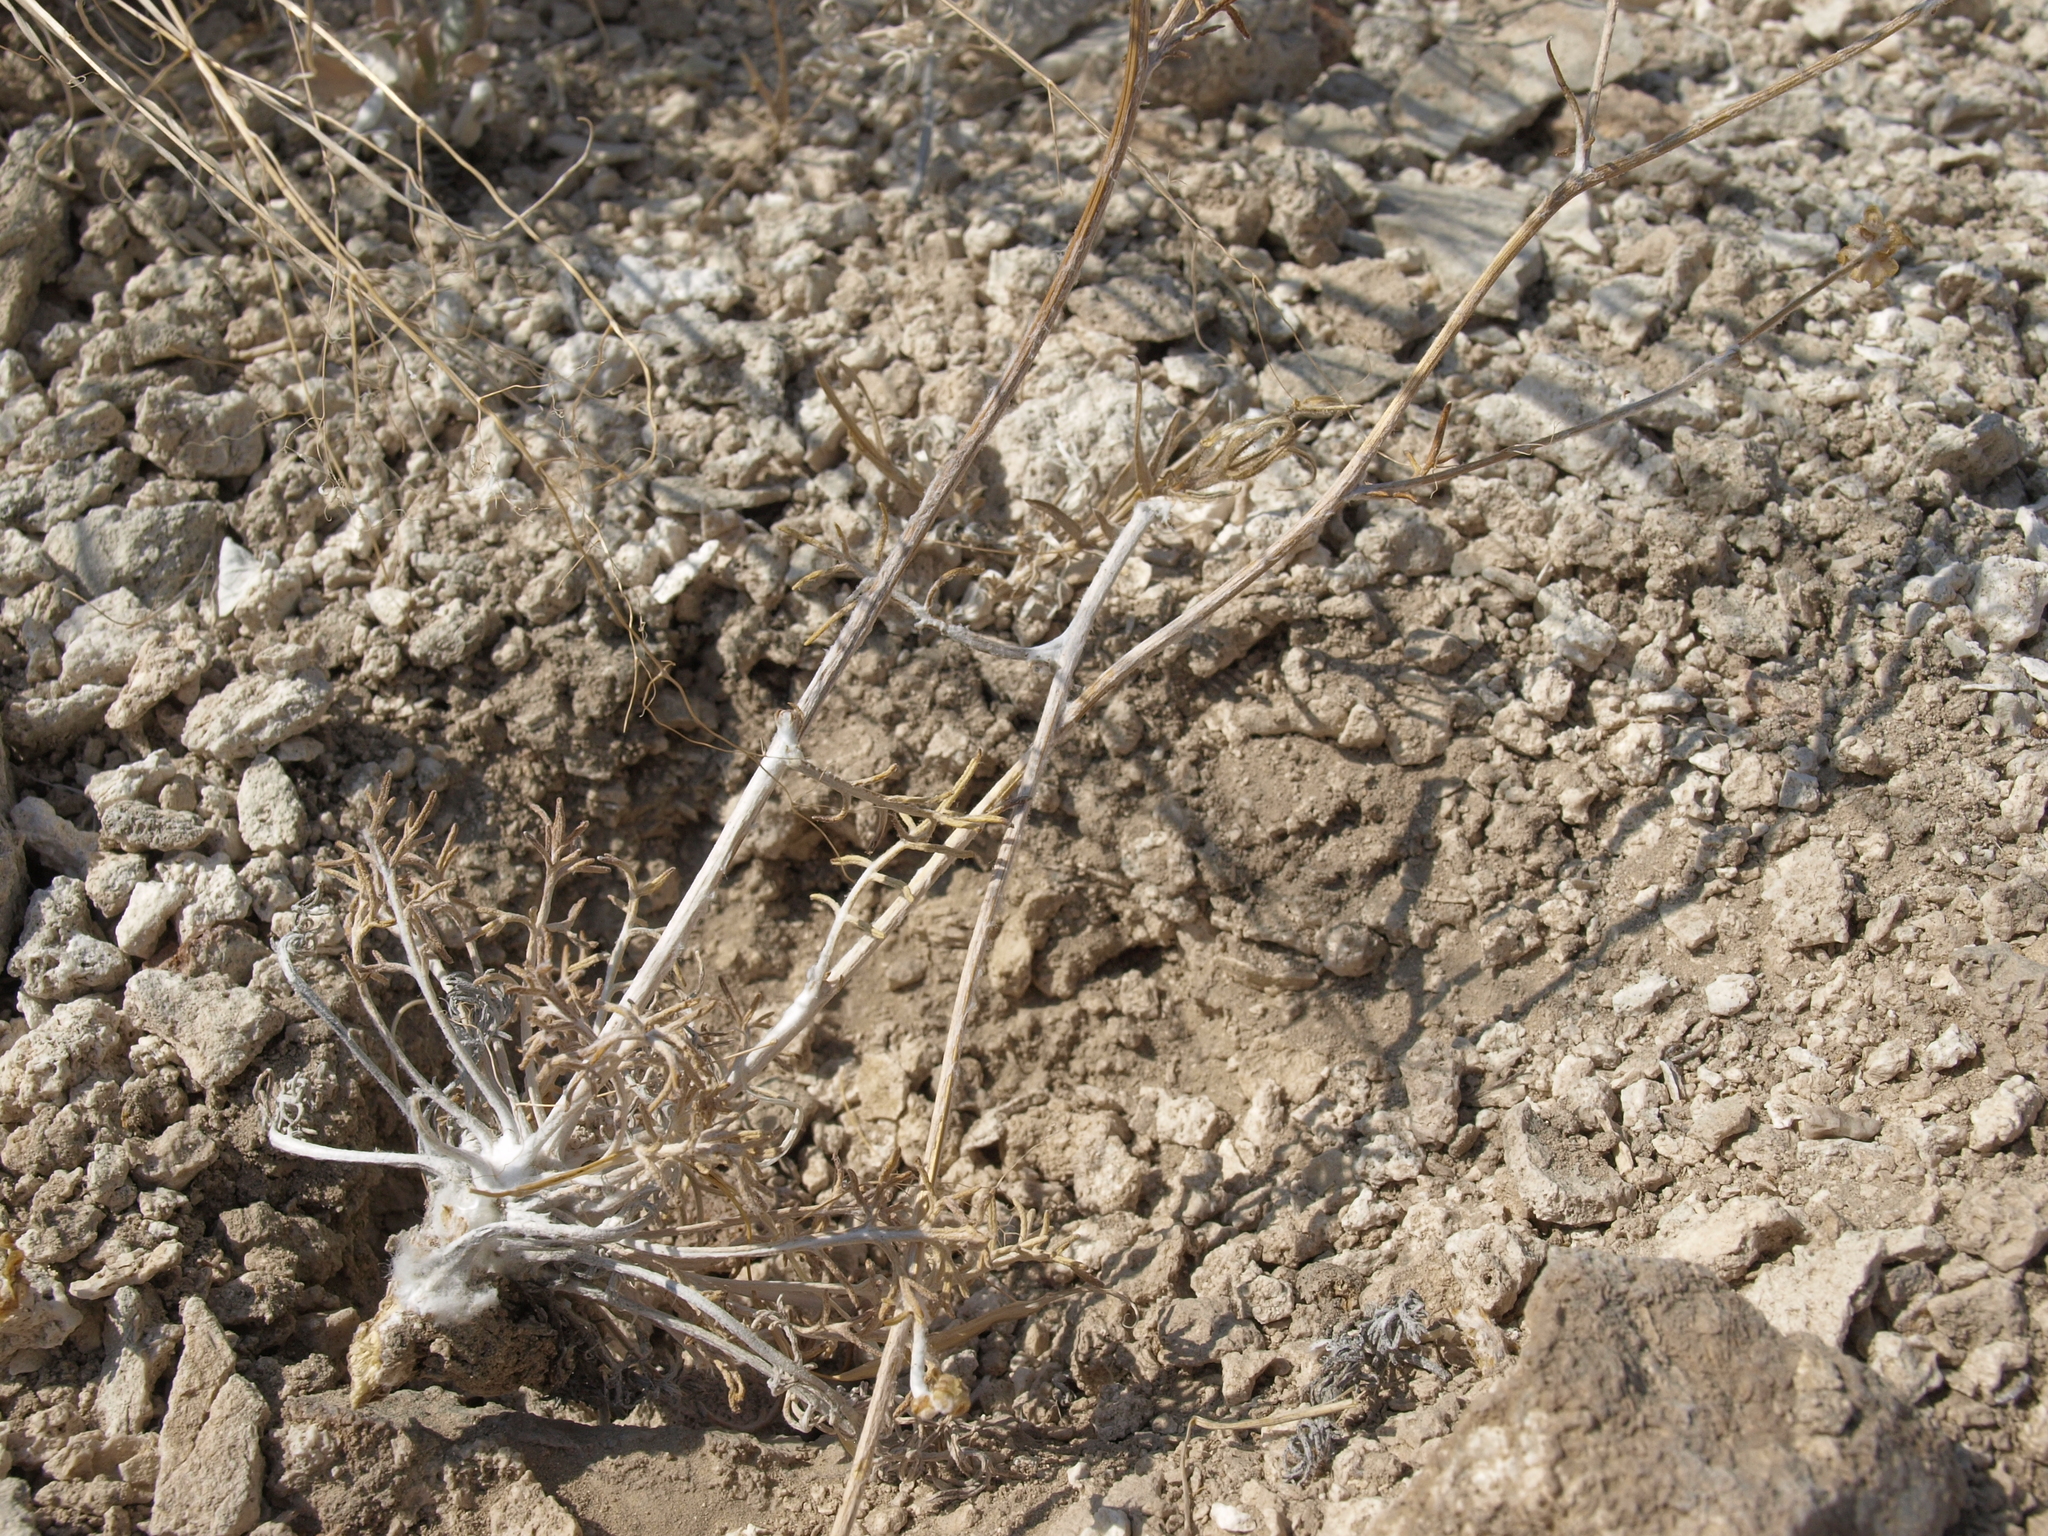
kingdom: Plantae
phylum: Tracheophyta
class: Magnoliopsida
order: Asterales
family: Asteraceae
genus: Hymenopappus
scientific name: Hymenopappus filifolius
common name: Columbia cutleaf
